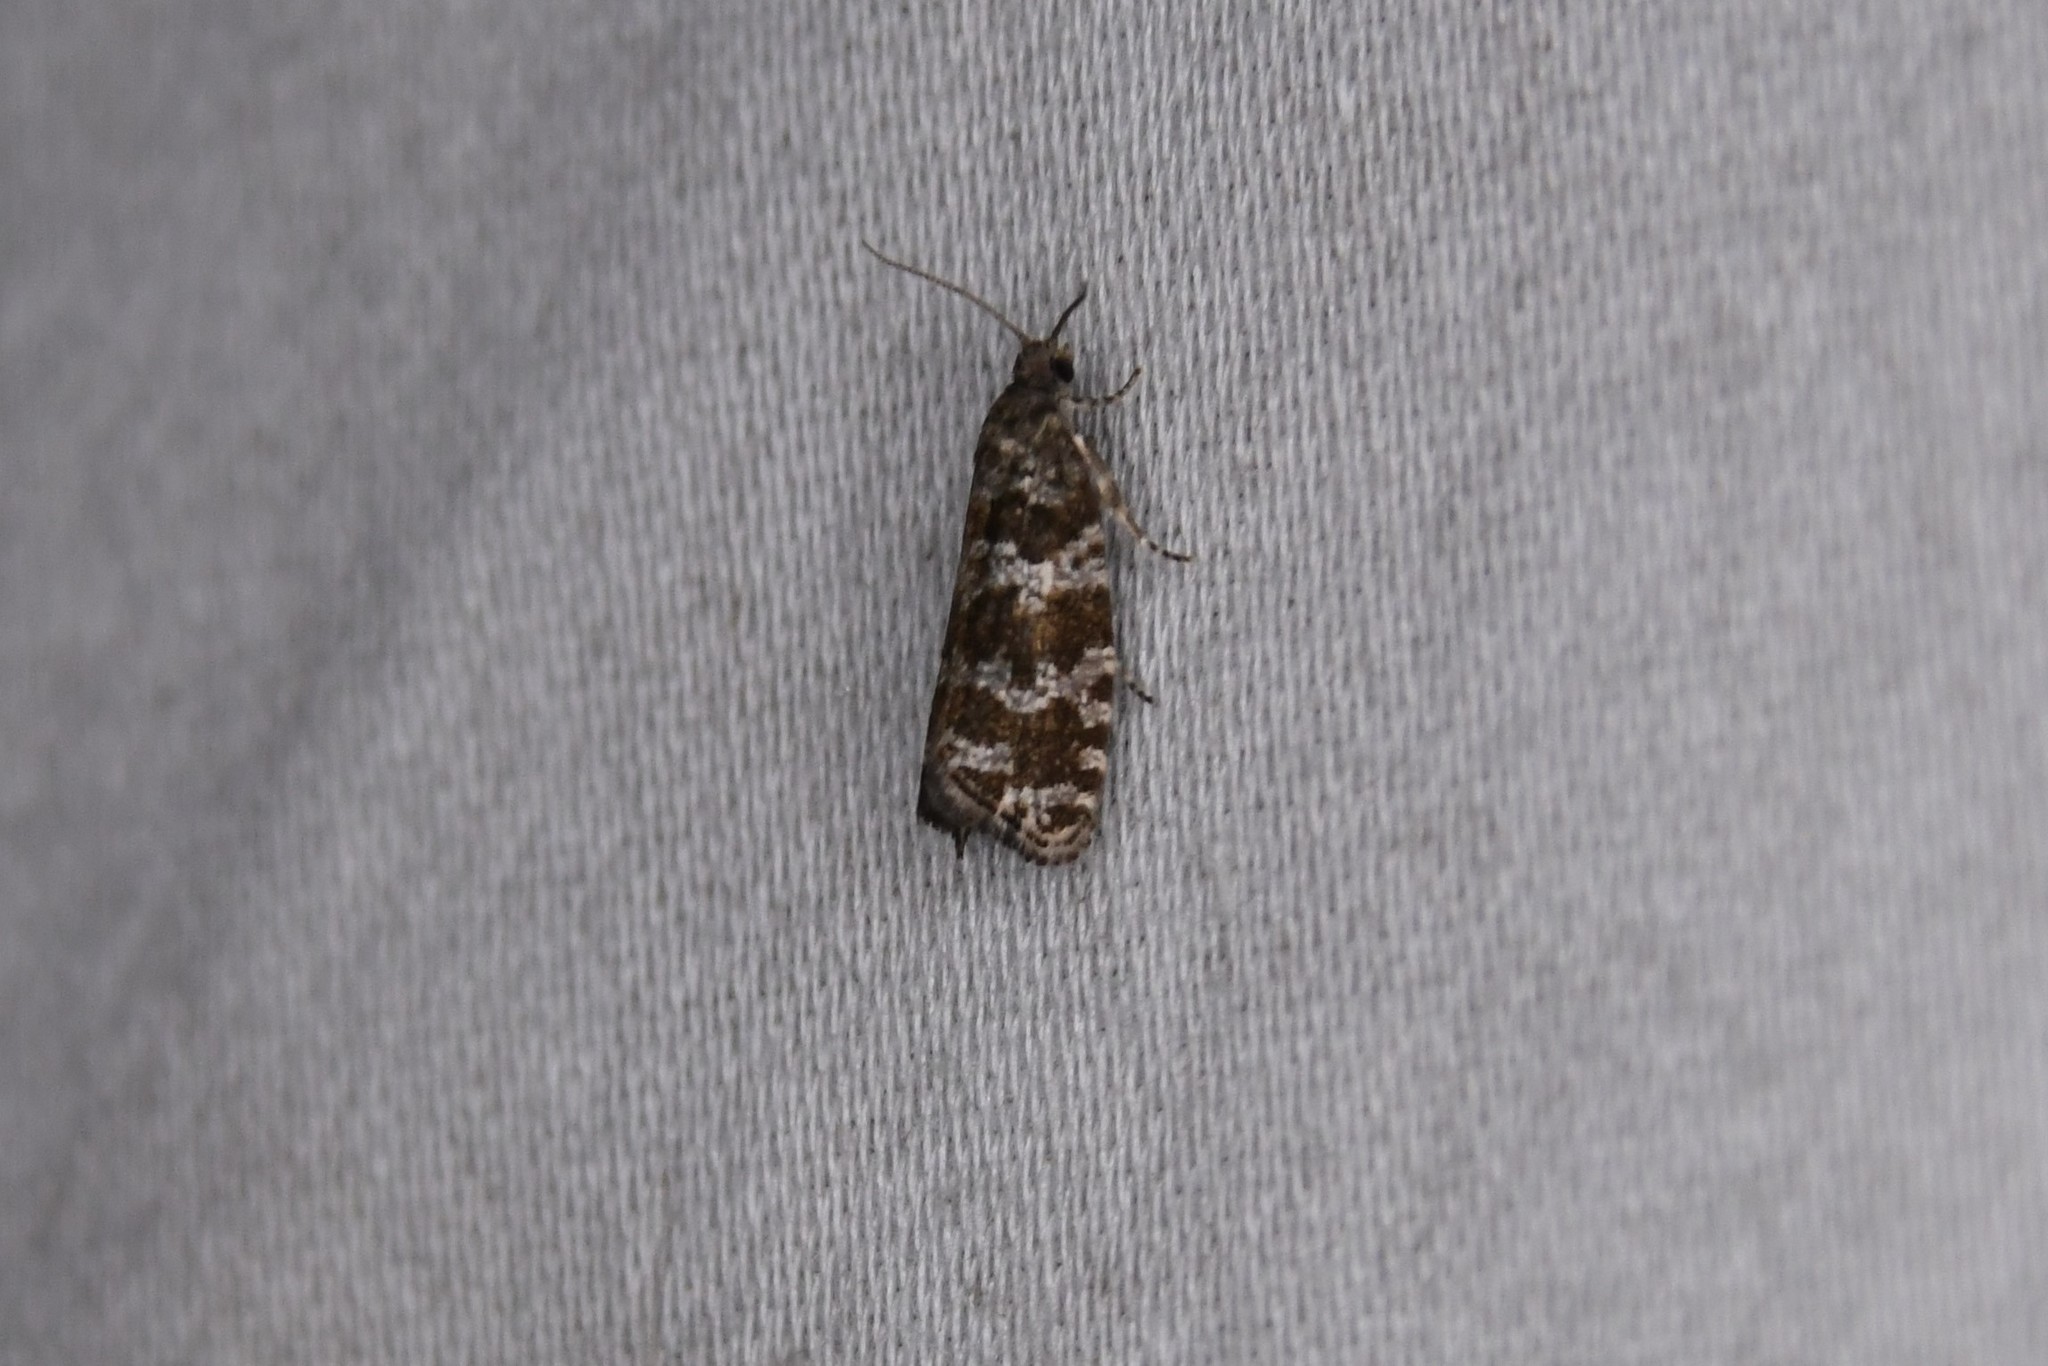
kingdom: Animalia
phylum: Arthropoda
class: Insecta
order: Lepidoptera
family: Tortricidae
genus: Taniva
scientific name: Taniva albolineana
